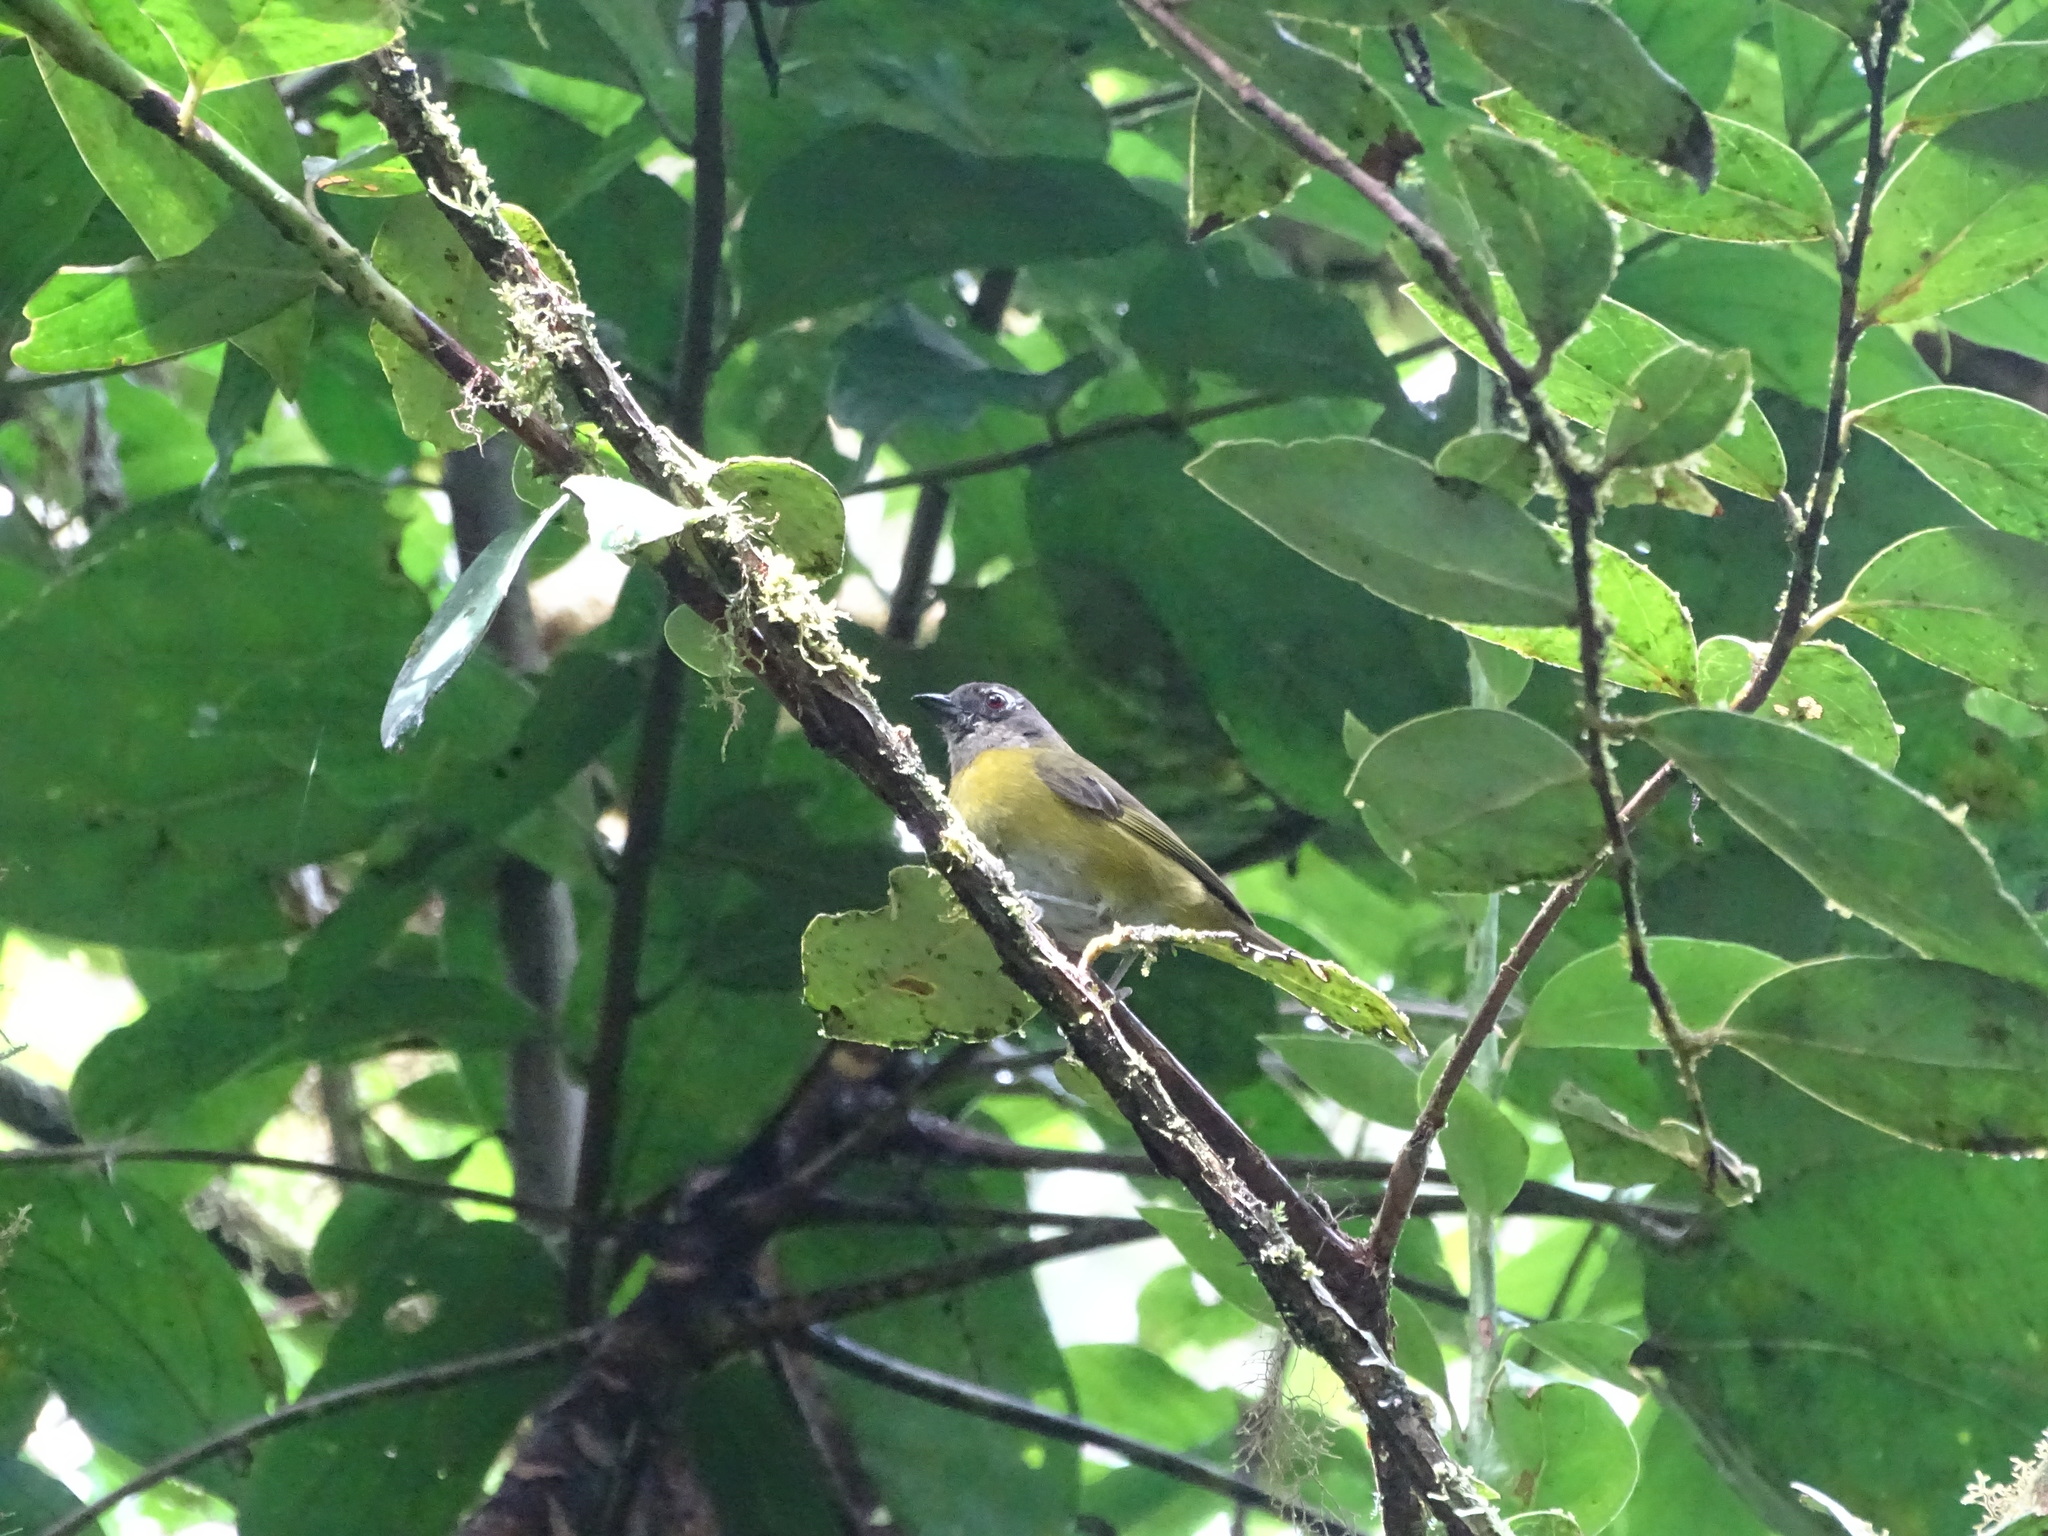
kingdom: Animalia
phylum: Chordata
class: Aves
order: Passeriformes
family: Passerellidae
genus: Chlorospingus
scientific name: Chlorospingus flavopectus
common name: Common chlorospingus
